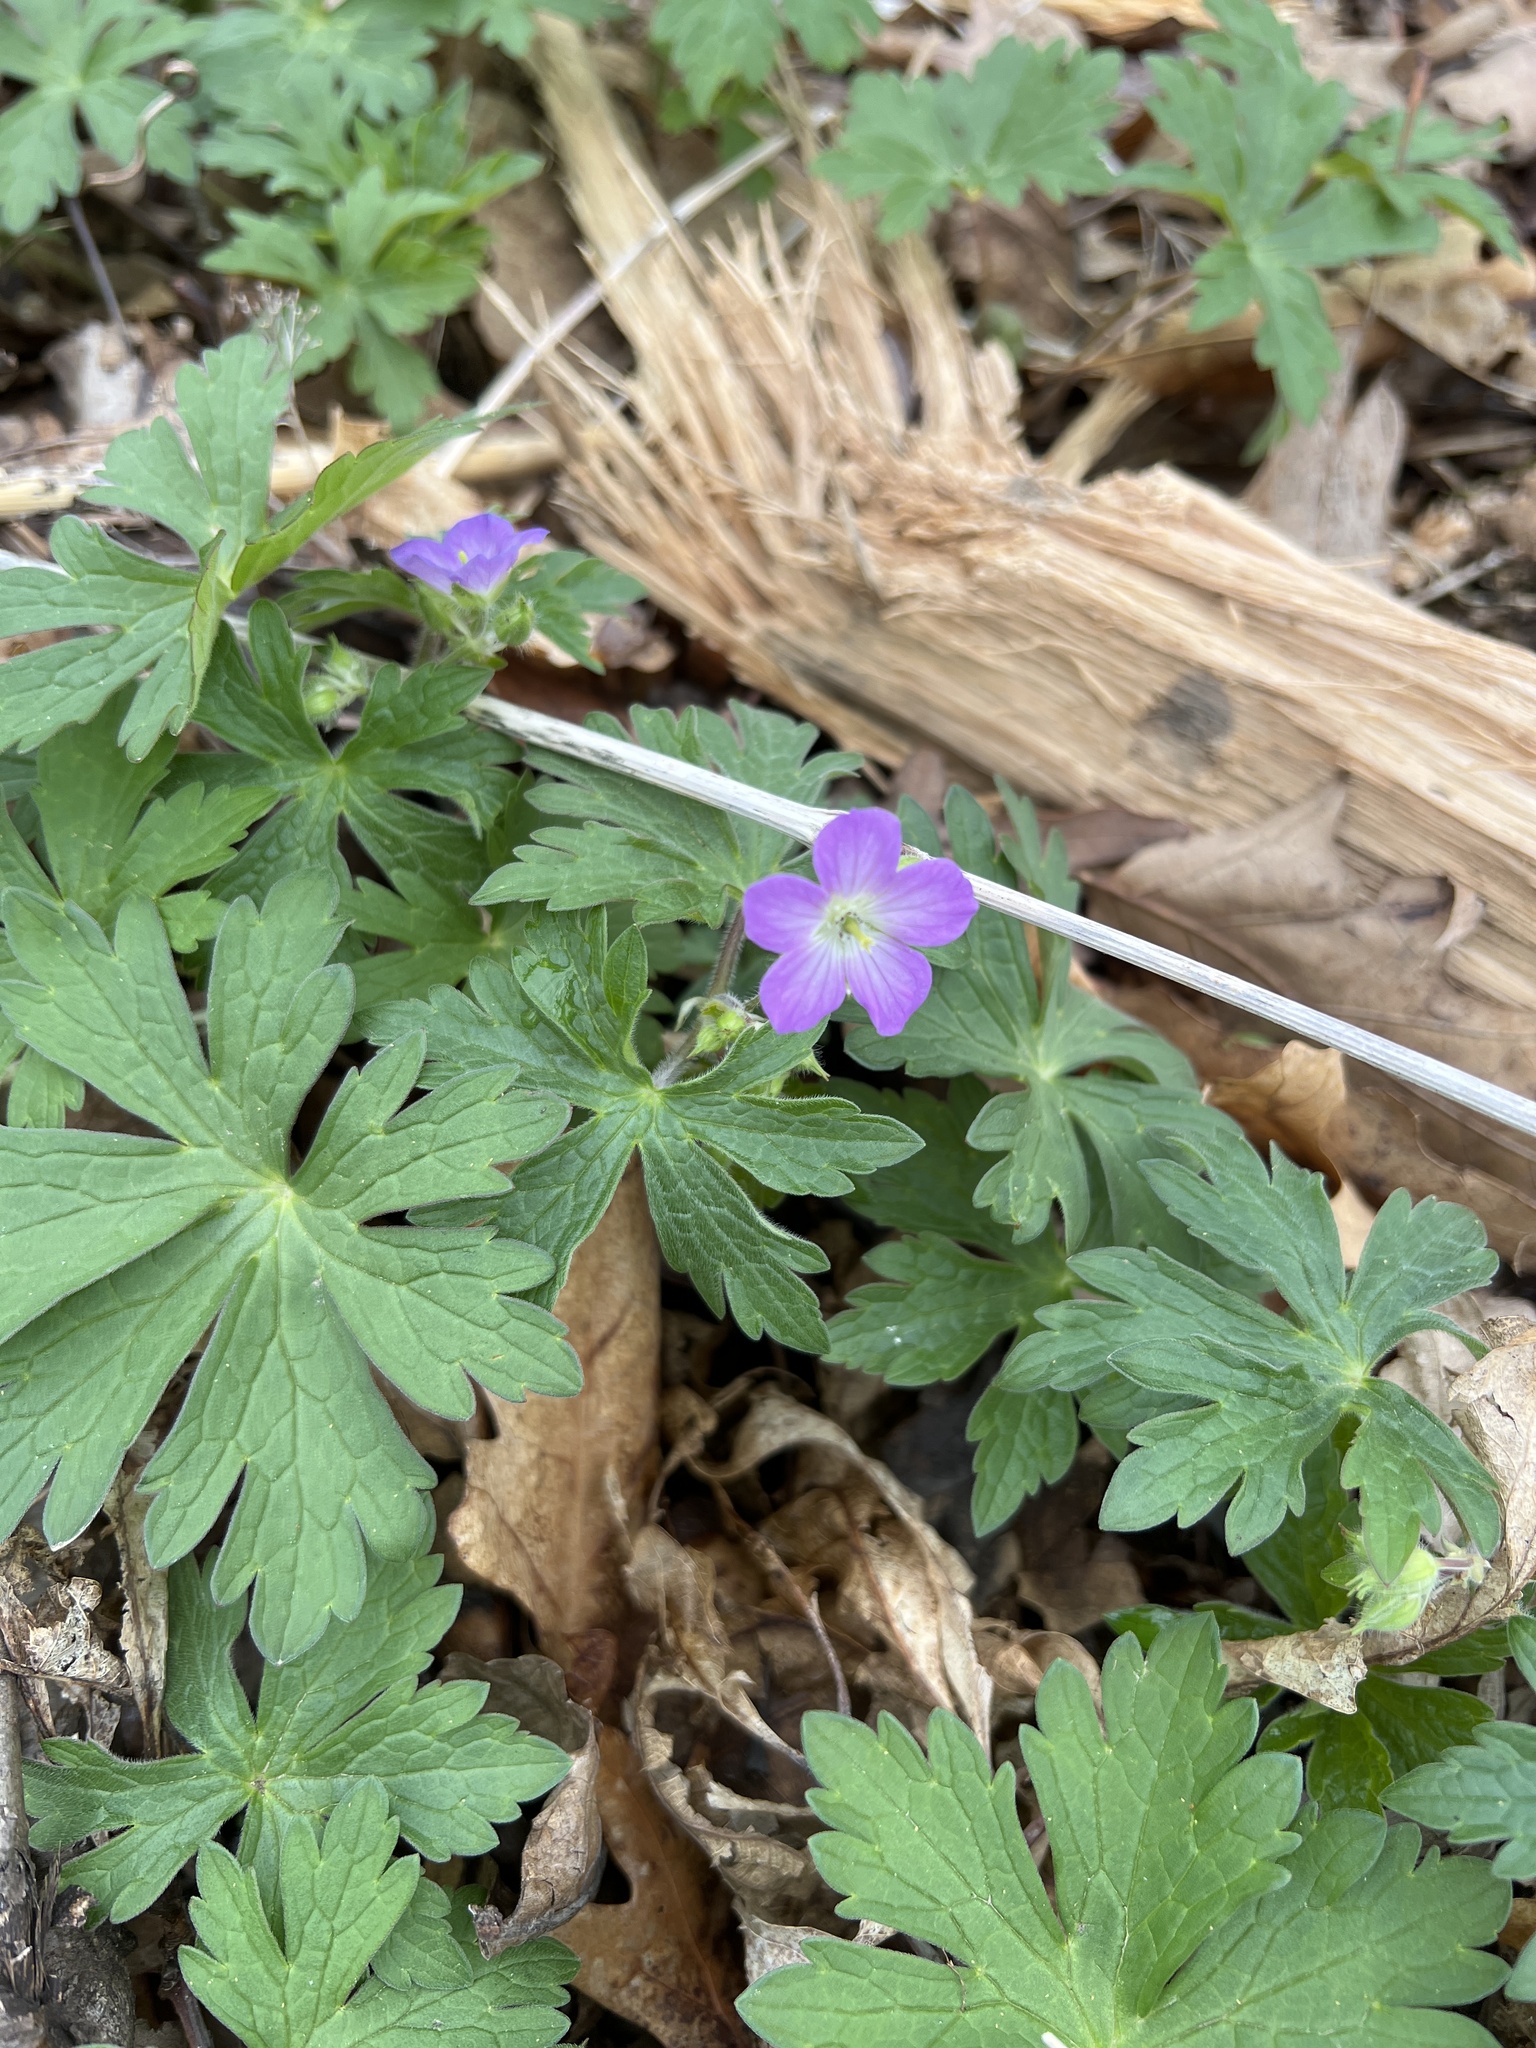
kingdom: Plantae
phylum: Tracheophyta
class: Magnoliopsida
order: Geraniales
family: Geraniaceae
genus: Geranium
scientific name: Geranium maculatum
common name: Spotted geranium
